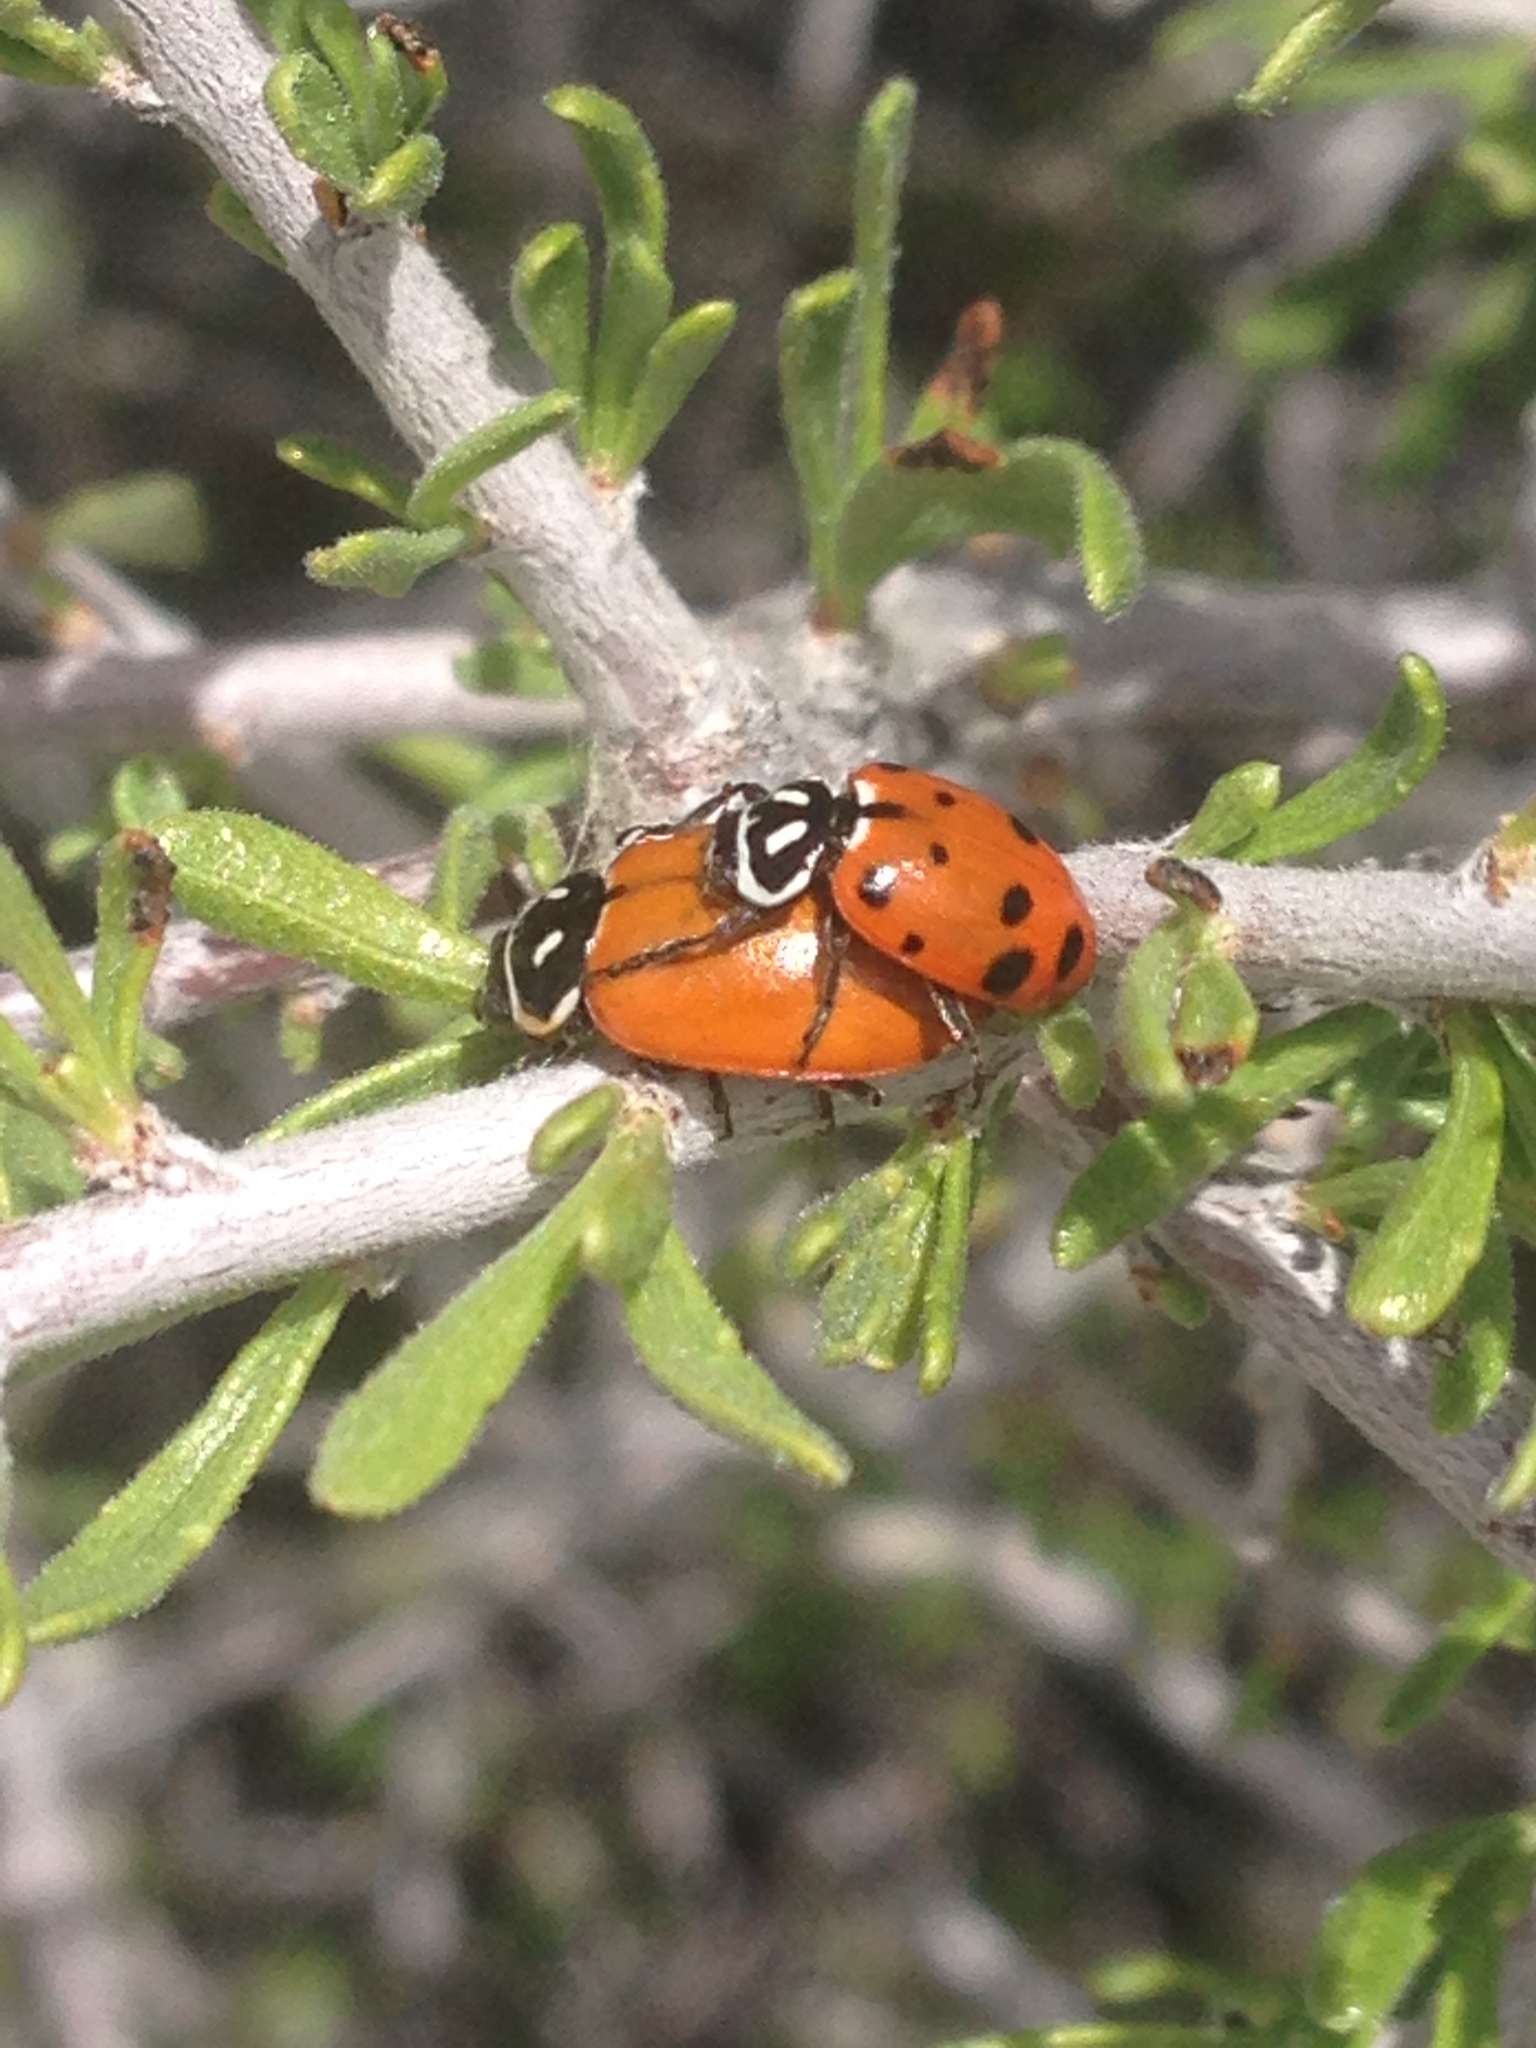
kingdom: Animalia
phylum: Arthropoda
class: Insecta
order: Coleoptera
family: Coccinellidae
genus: Hippodamia
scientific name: Hippodamia convergens
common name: Convergent lady beetle
